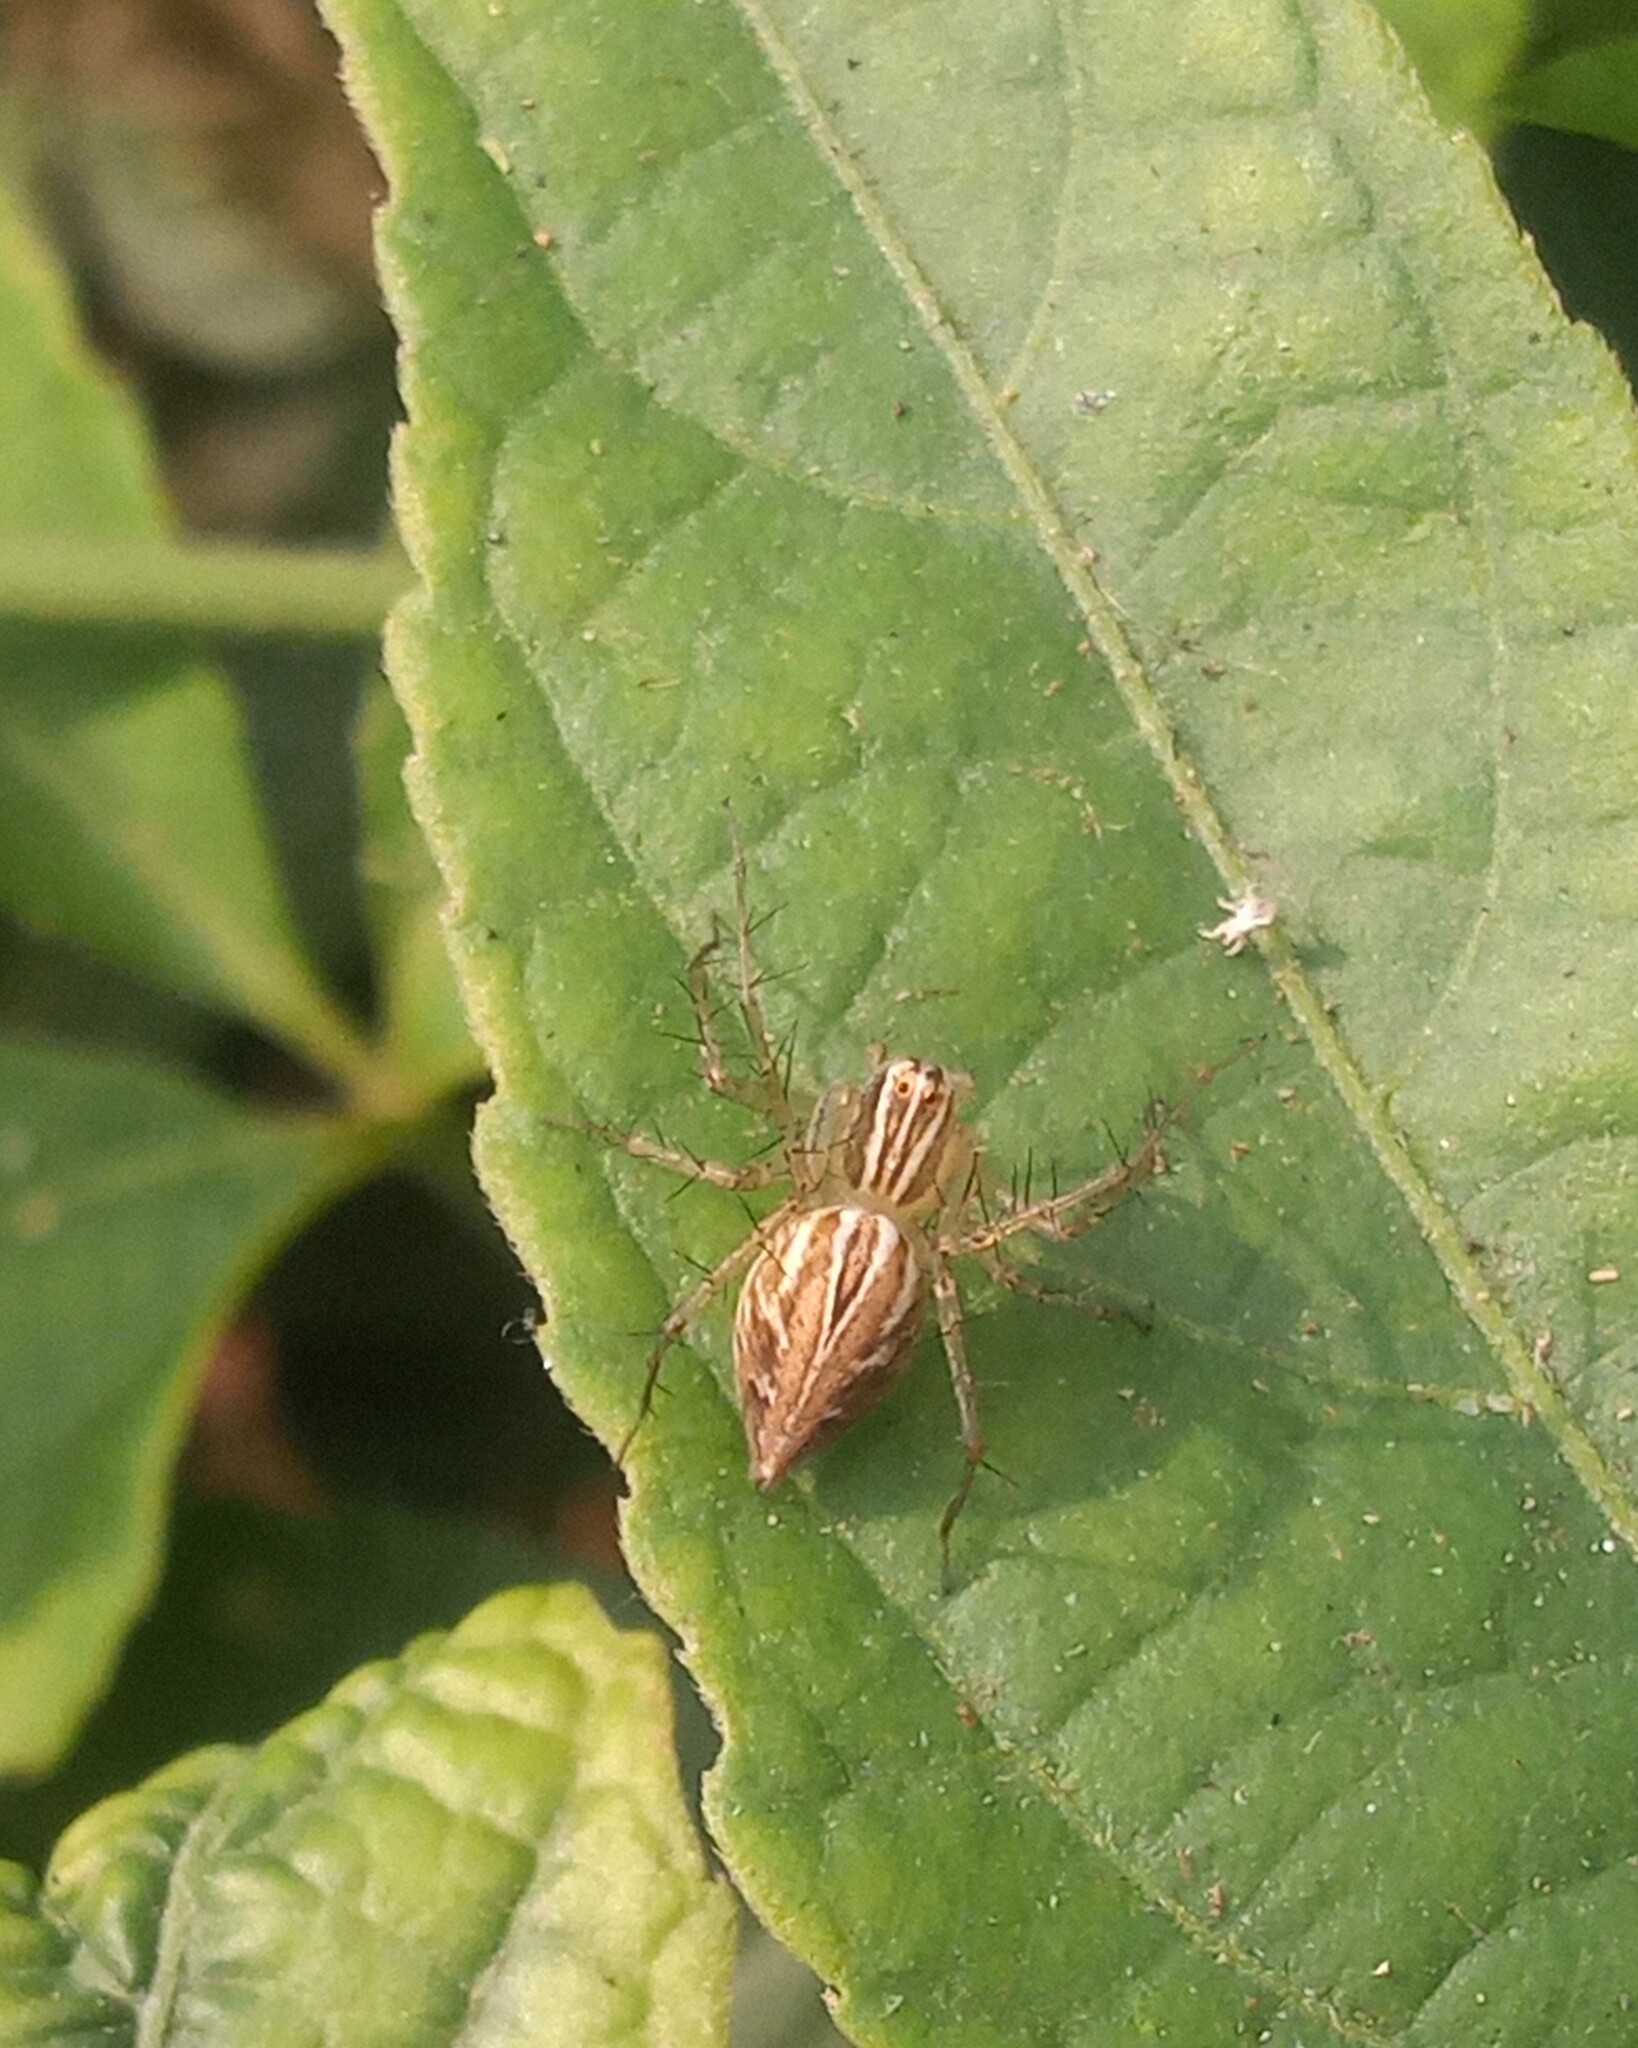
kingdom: Animalia
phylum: Arthropoda
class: Arachnida
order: Araneae
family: Oxyopidae
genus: Oxyopes
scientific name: Oxyopes salticus
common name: Lynx spiders
